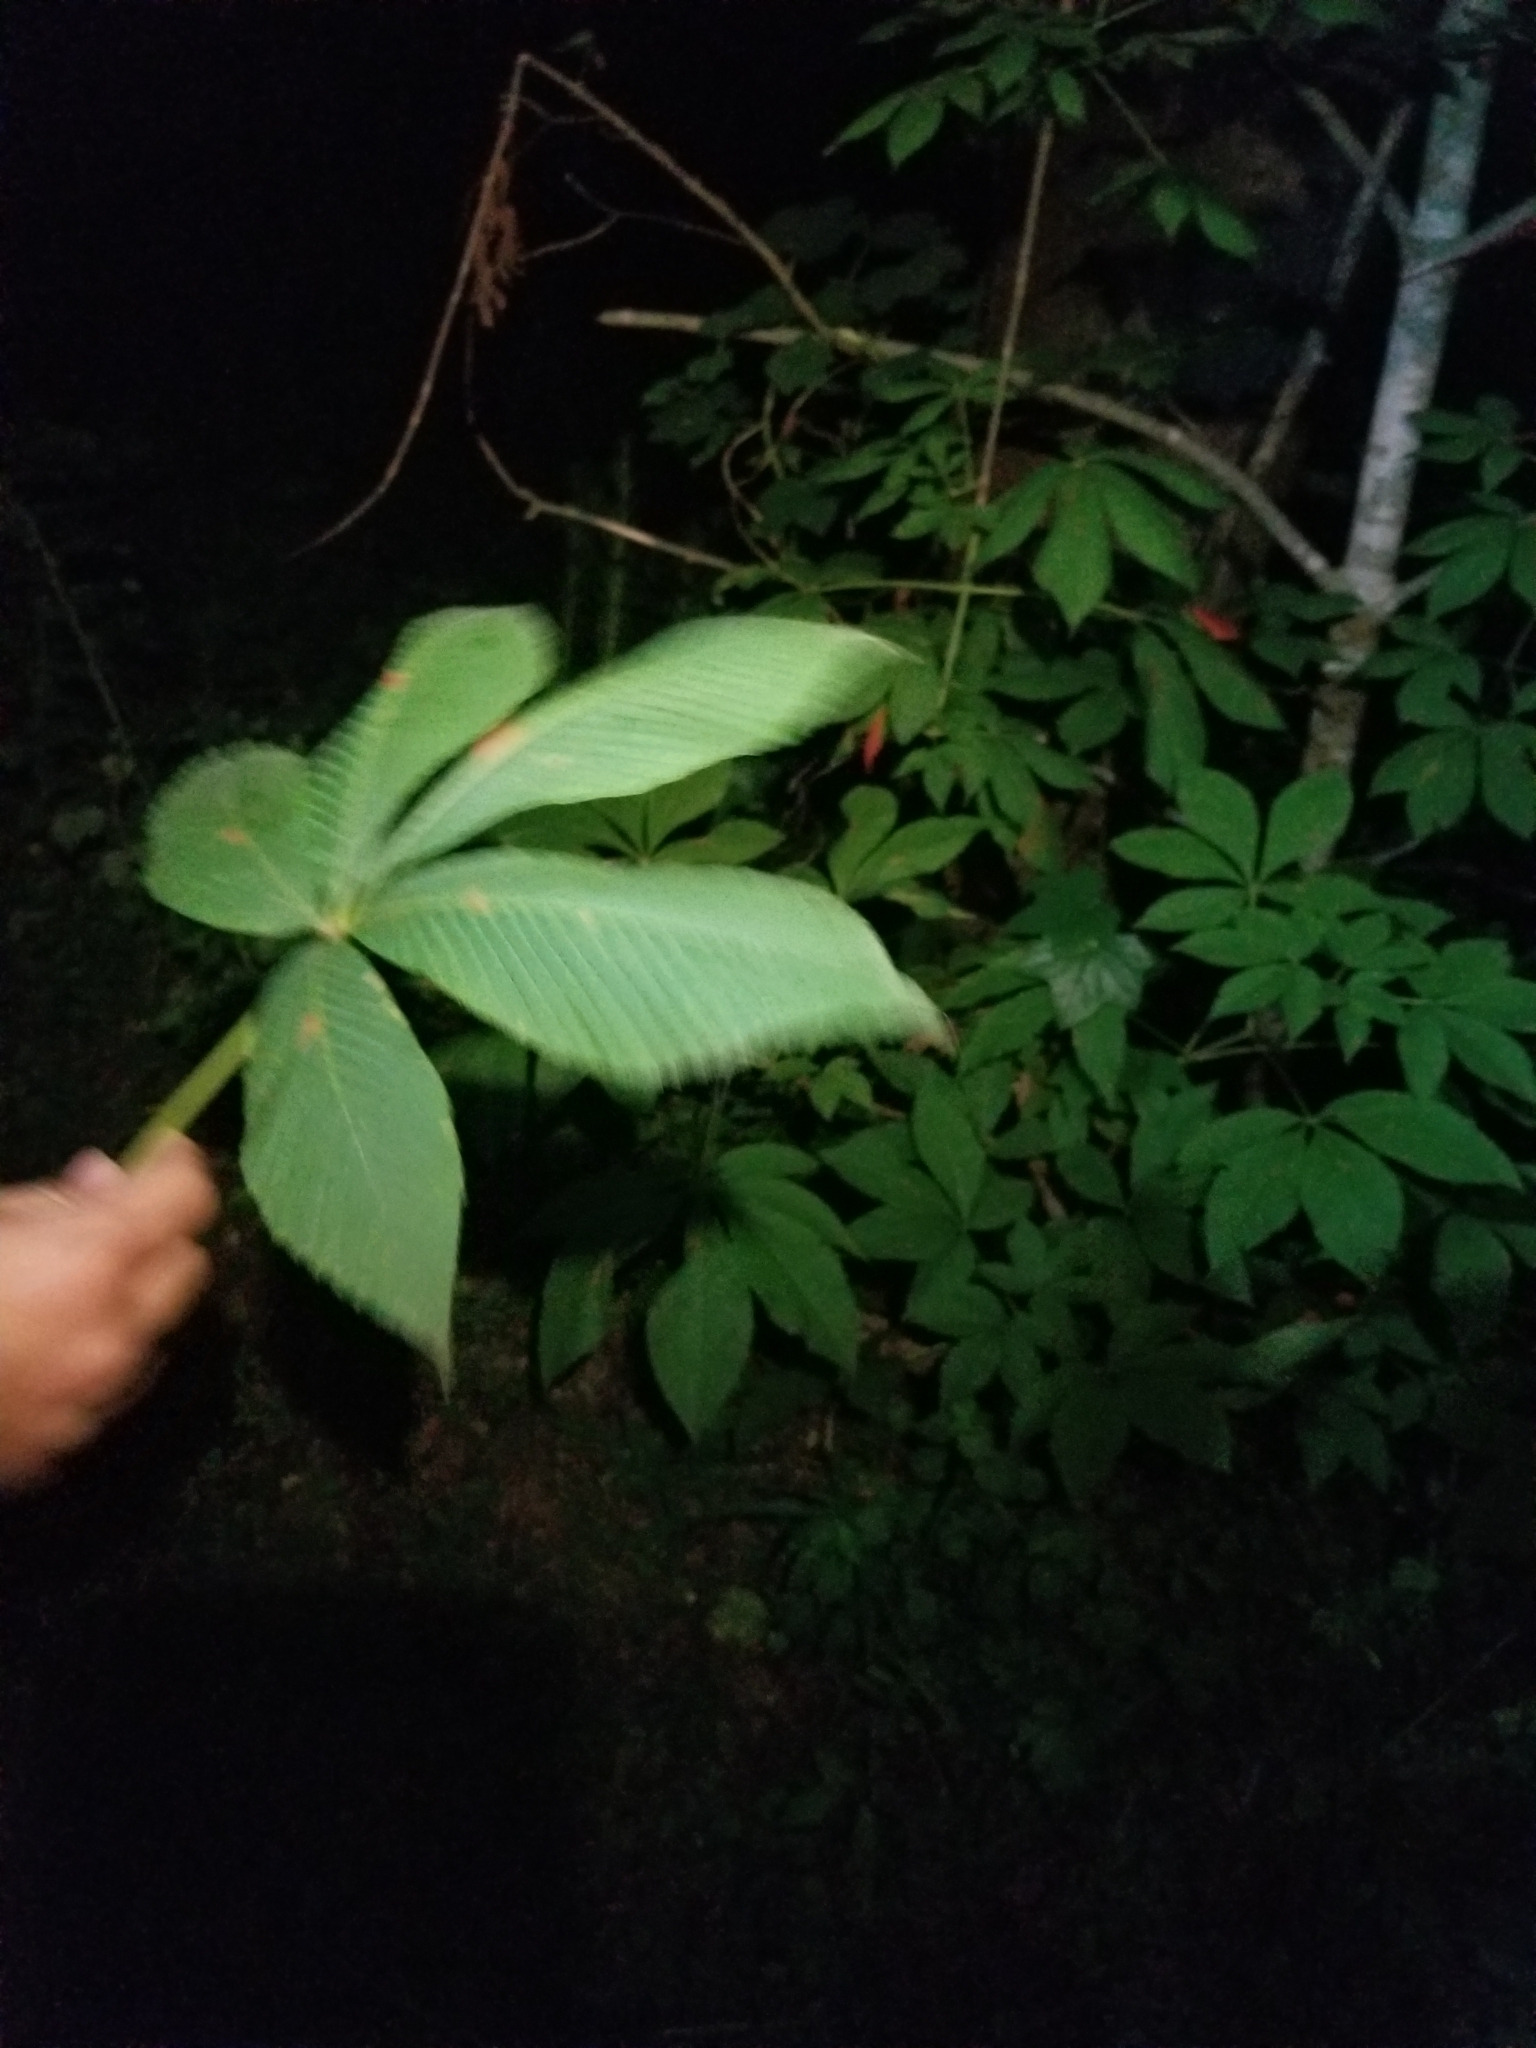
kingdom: Plantae
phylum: Tracheophyta
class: Magnoliopsida
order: Sapindales
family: Sapindaceae
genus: Aesculus
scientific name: Aesculus flava
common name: Yellow buckeye
